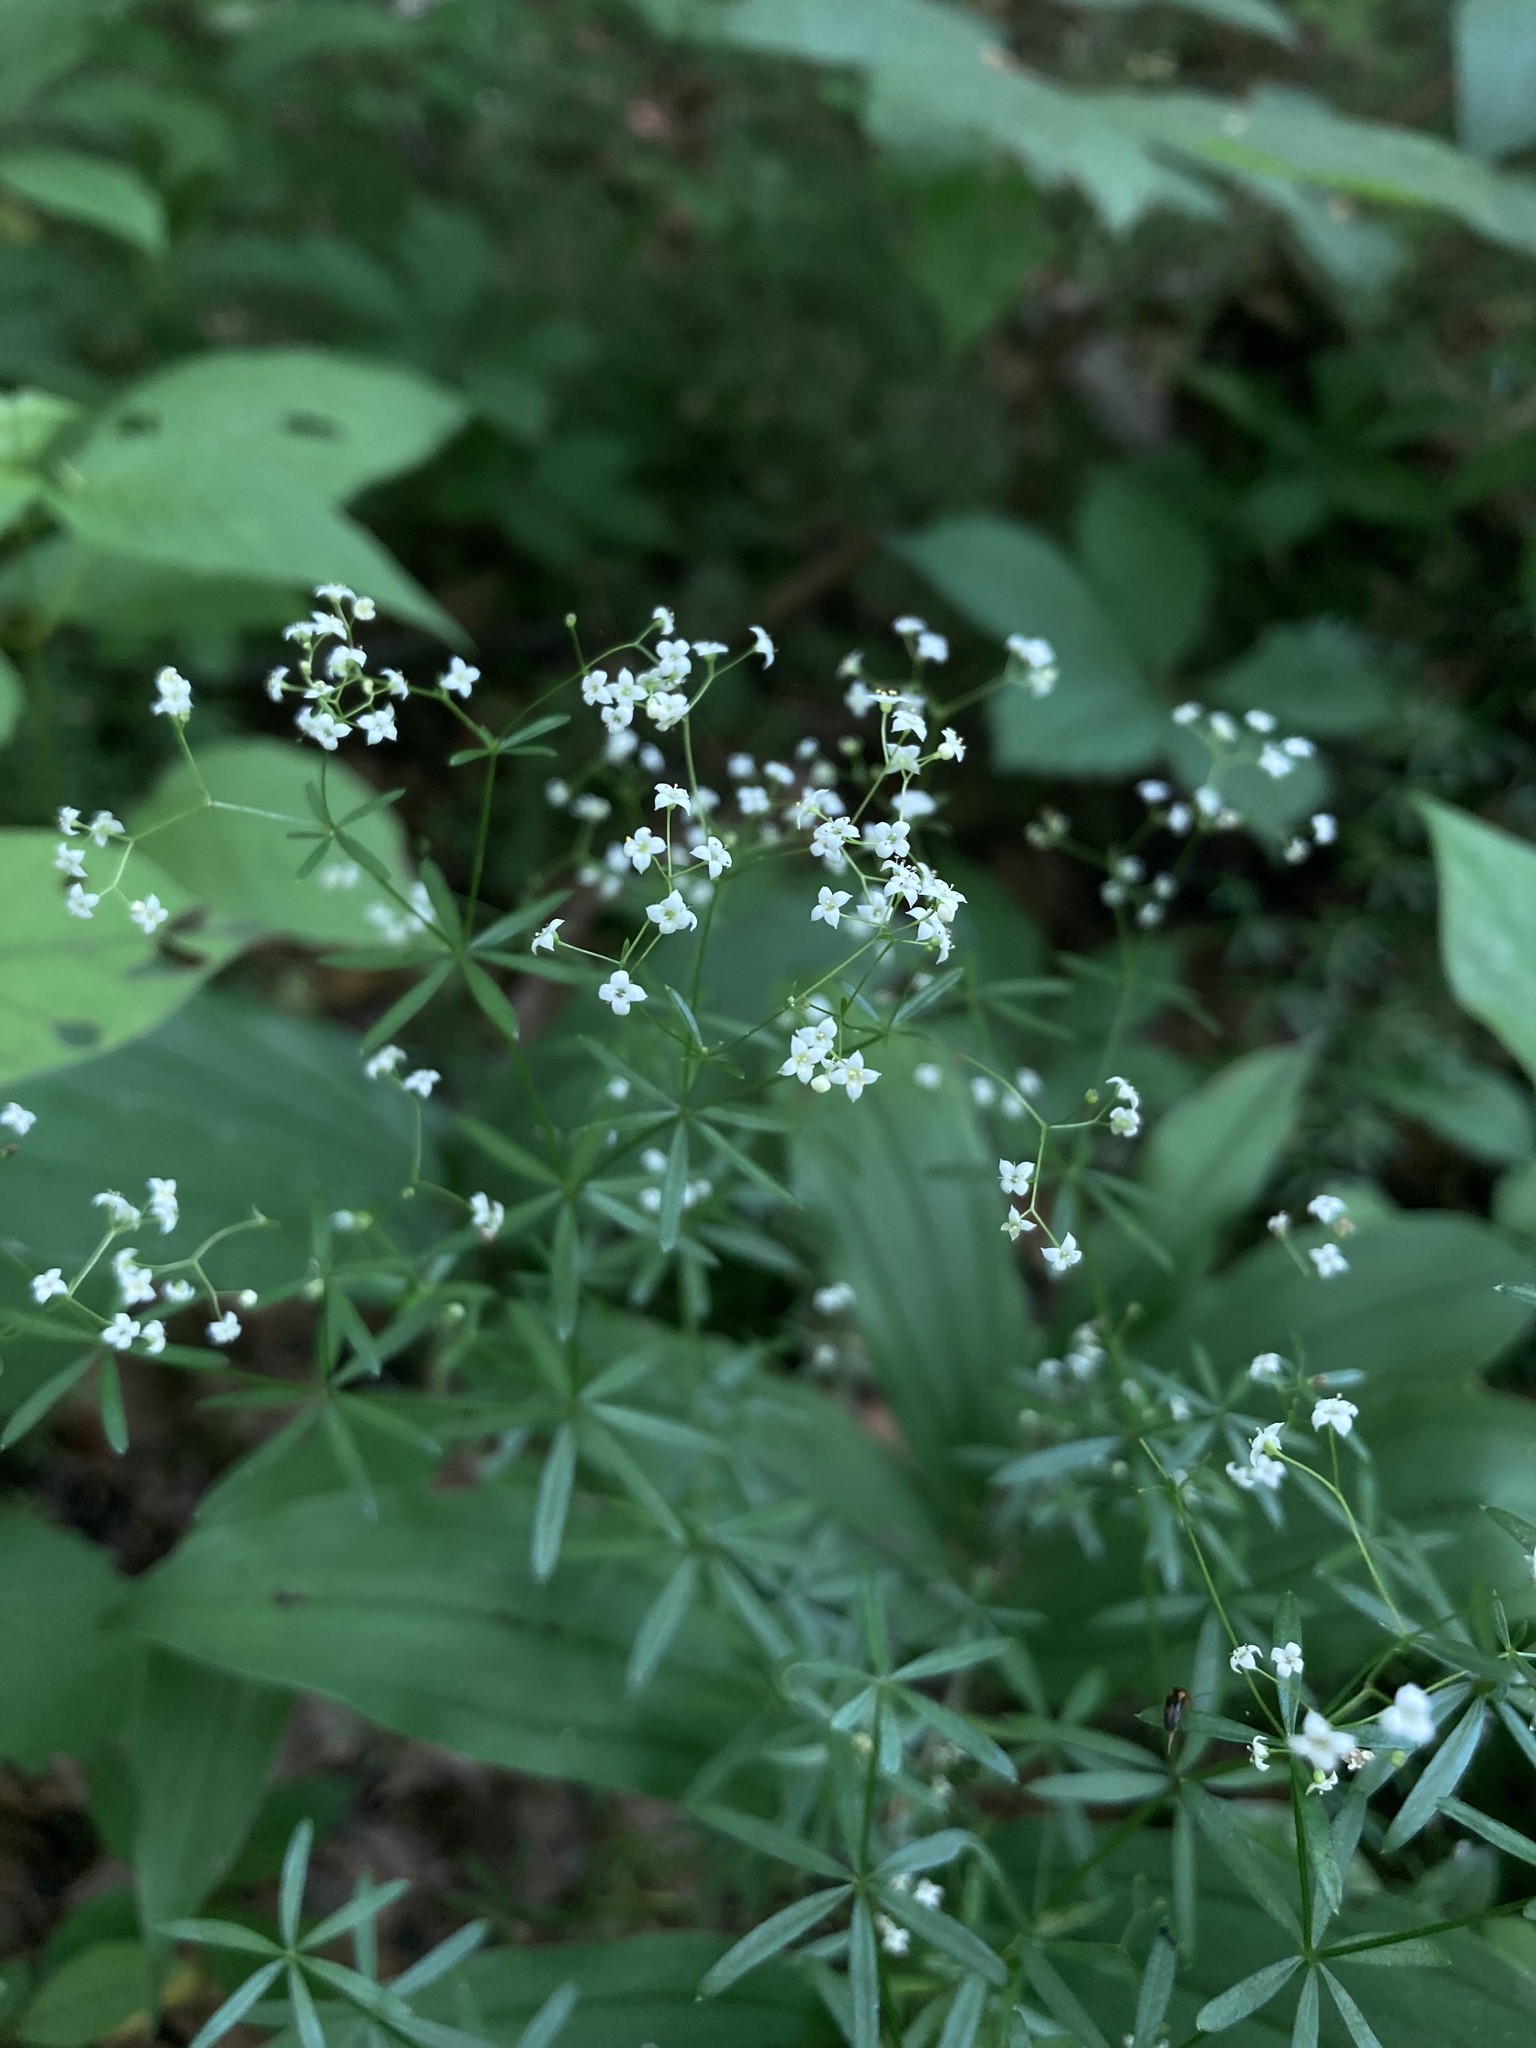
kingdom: Plantae
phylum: Tracheophyta
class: Magnoliopsida
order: Gentianales
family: Rubiaceae
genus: Galium
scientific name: Galium concinnum
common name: Shining bedstraw
